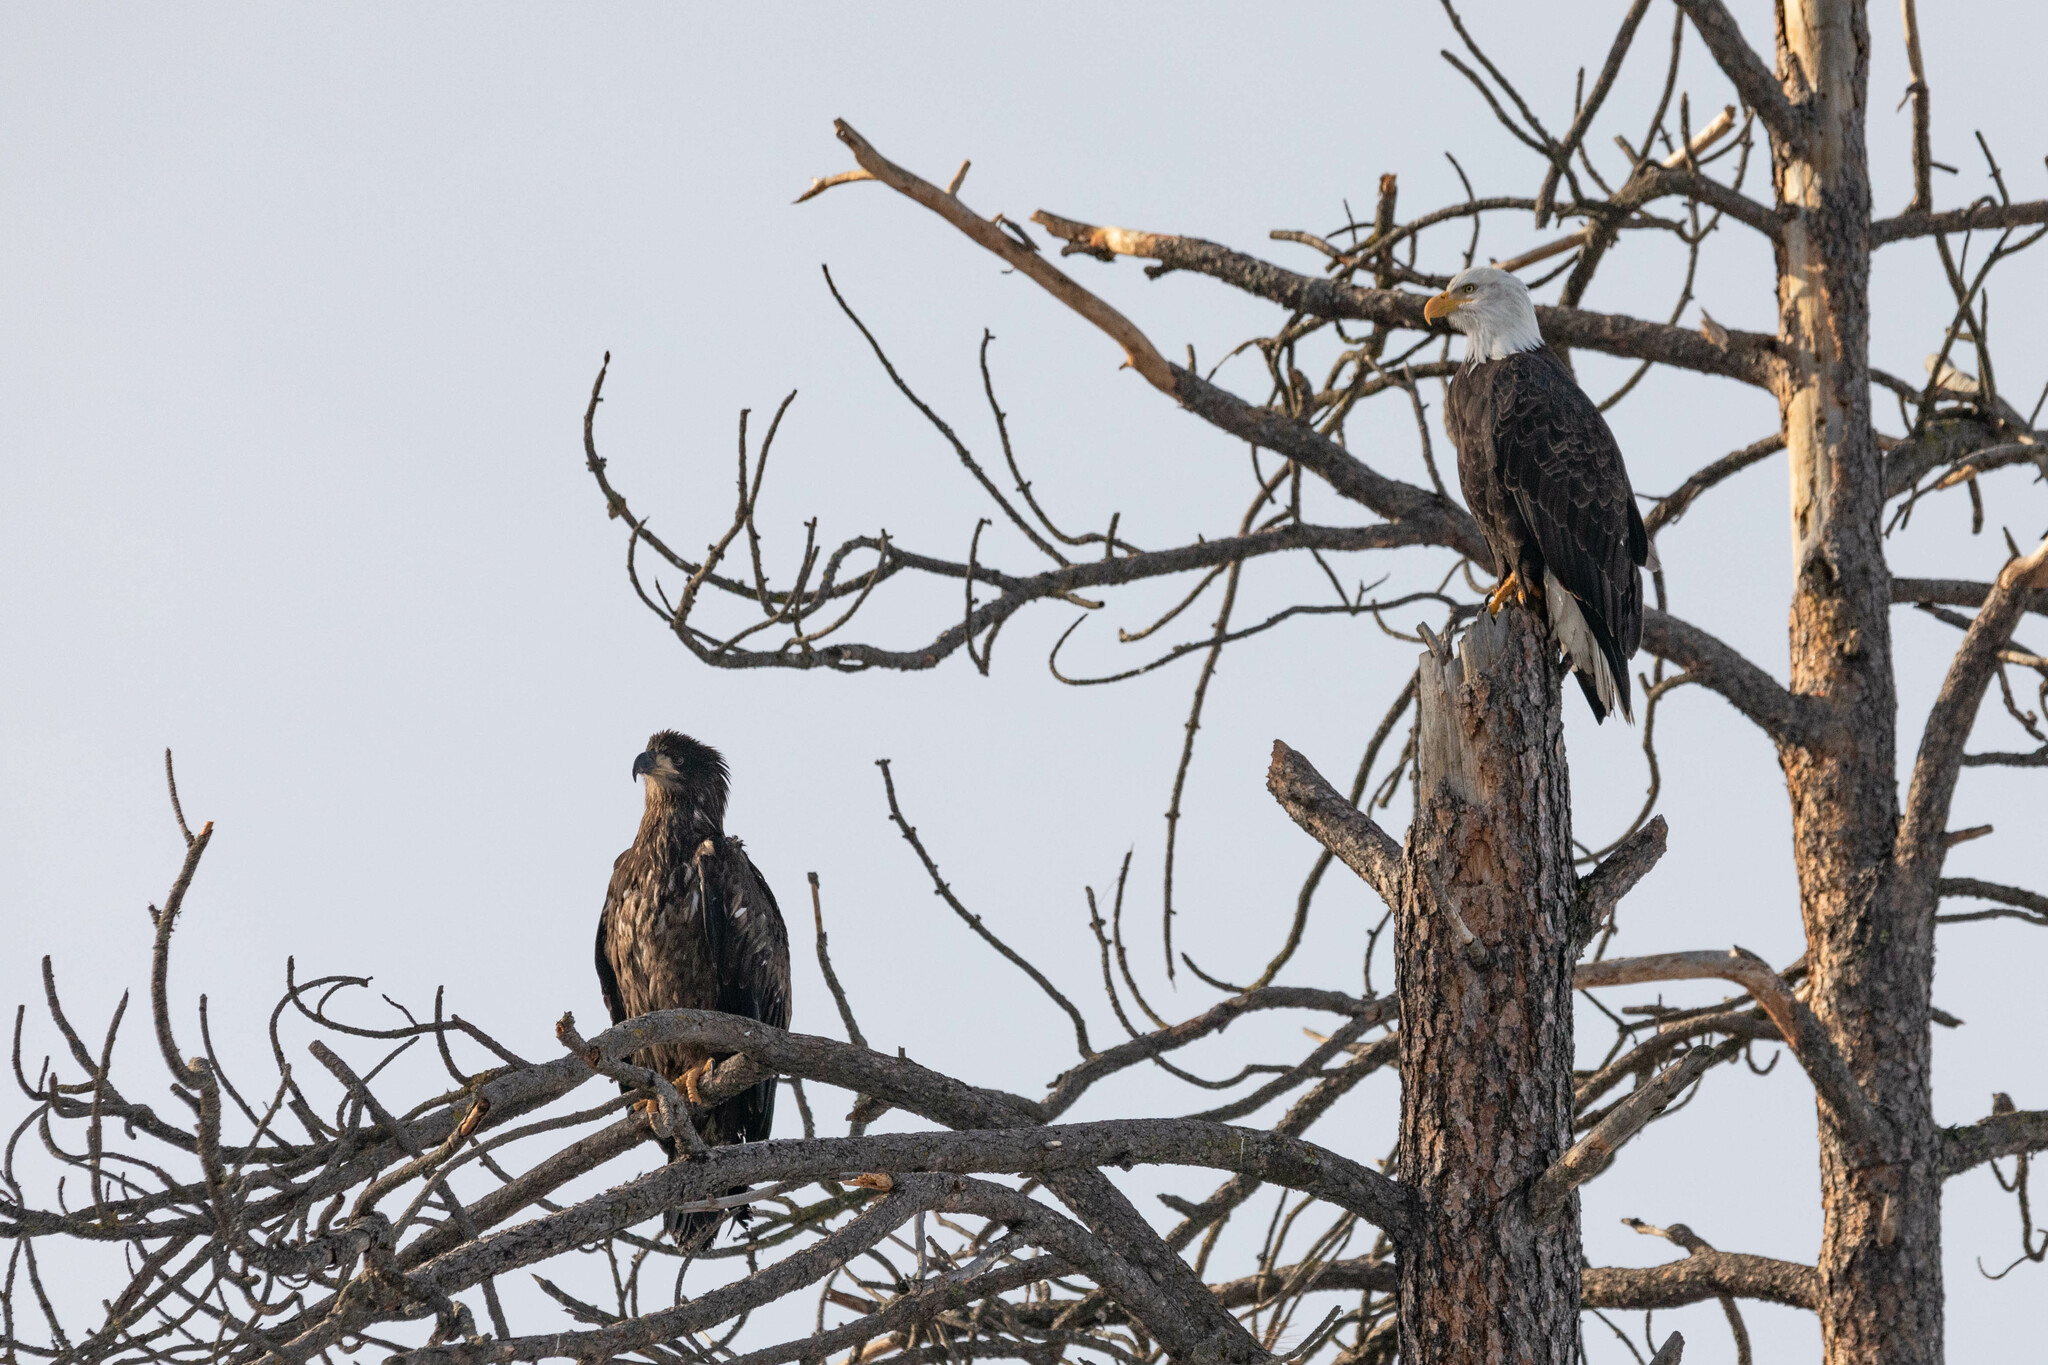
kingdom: Animalia
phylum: Chordata
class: Aves
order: Accipitriformes
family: Accipitridae
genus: Haliaeetus
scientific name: Haliaeetus leucocephalus
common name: Bald eagle
